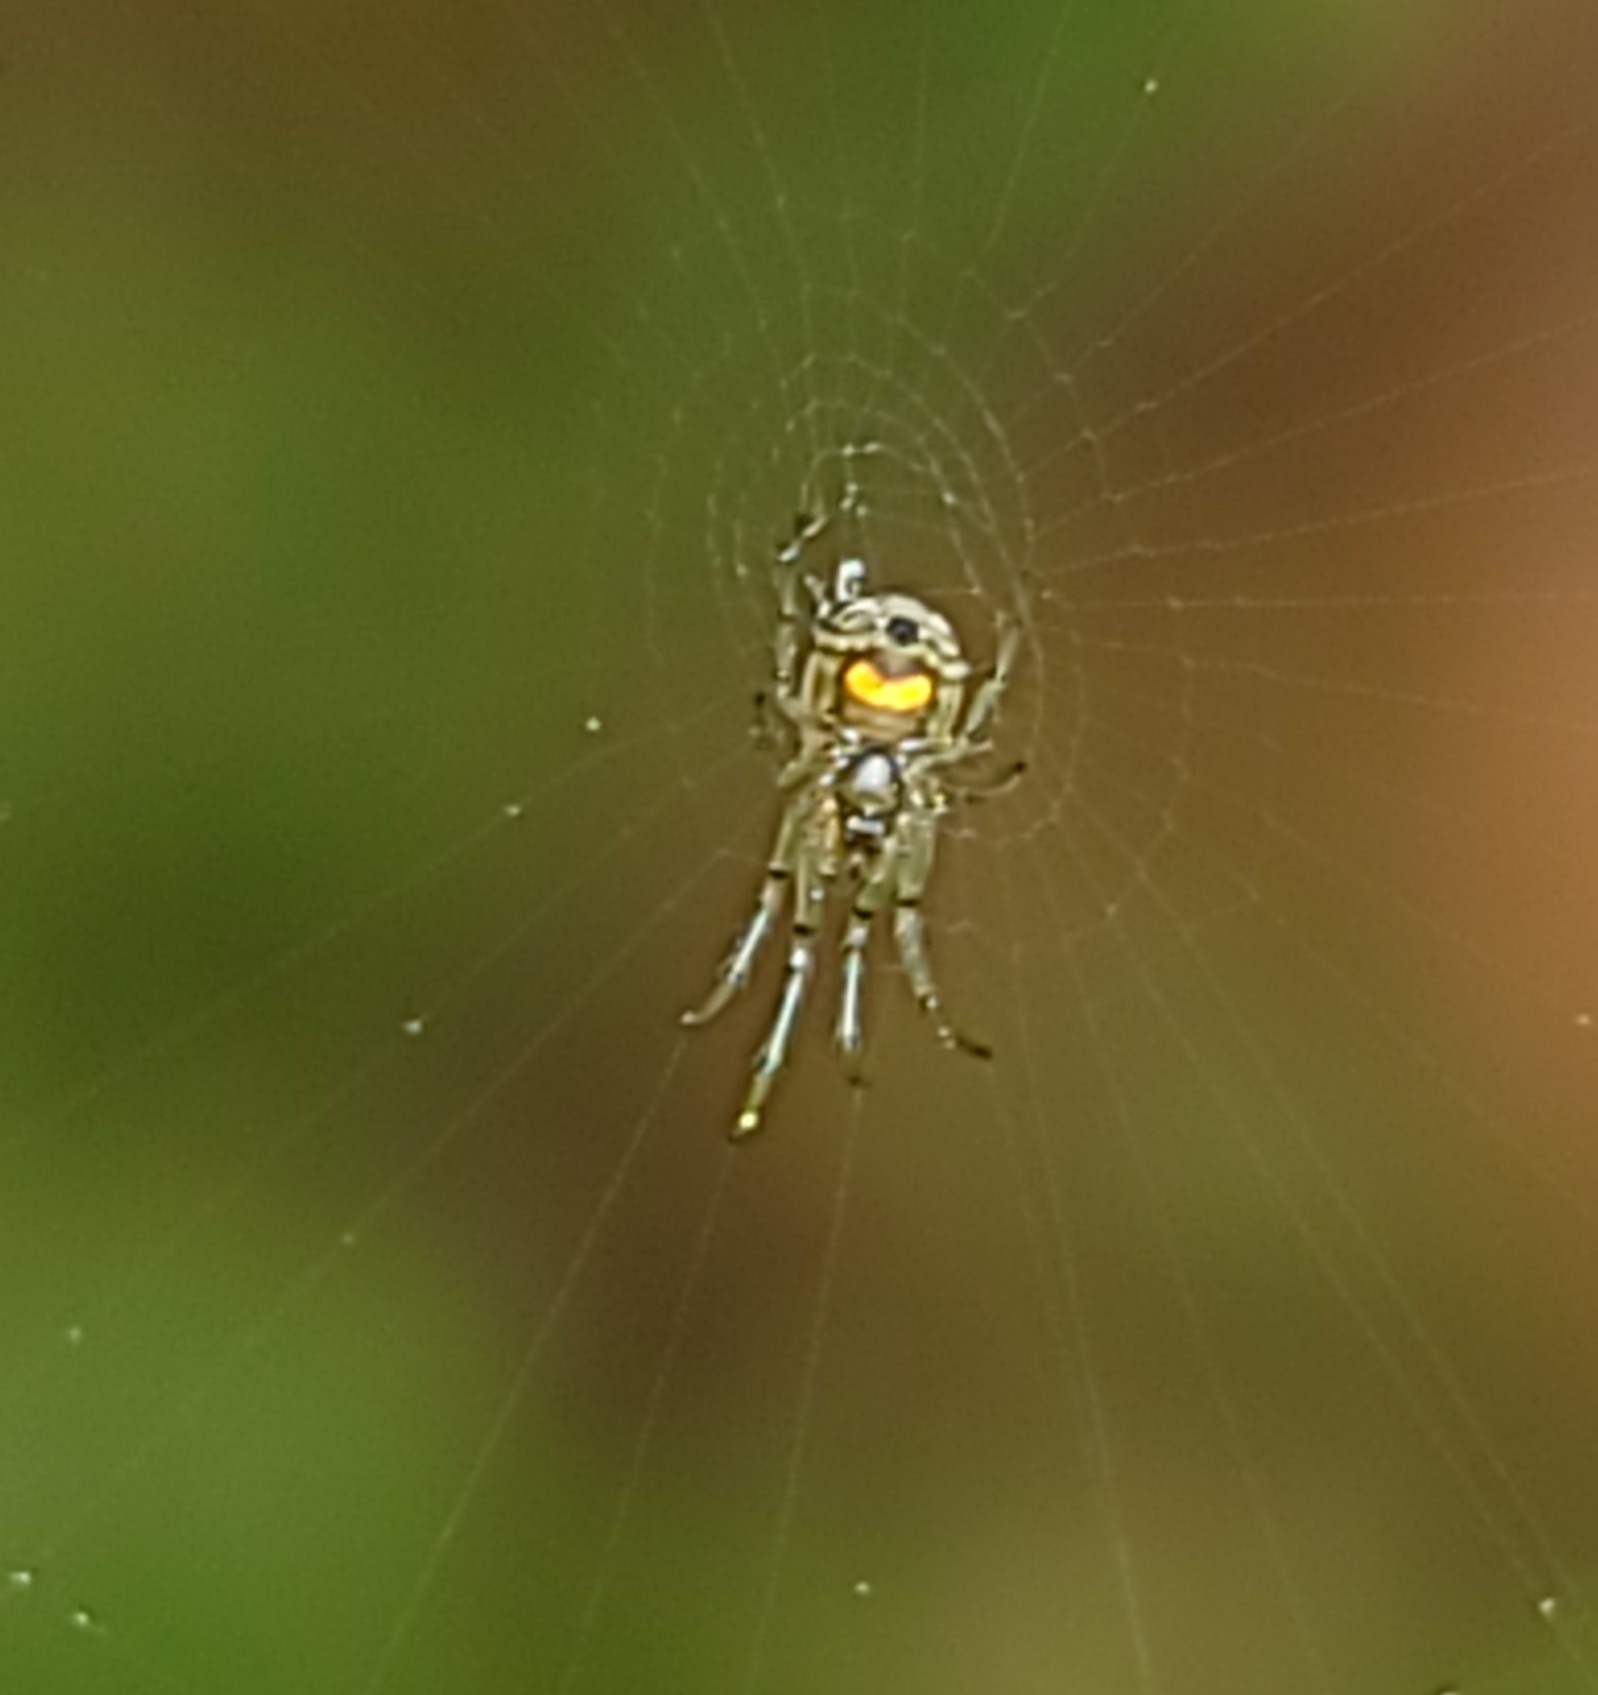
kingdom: Animalia
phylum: Arthropoda
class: Arachnida
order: Araneae
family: Tetragnathidae
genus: Leucauge
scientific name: Leucauge venusta
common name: Longjawed orb weavers
